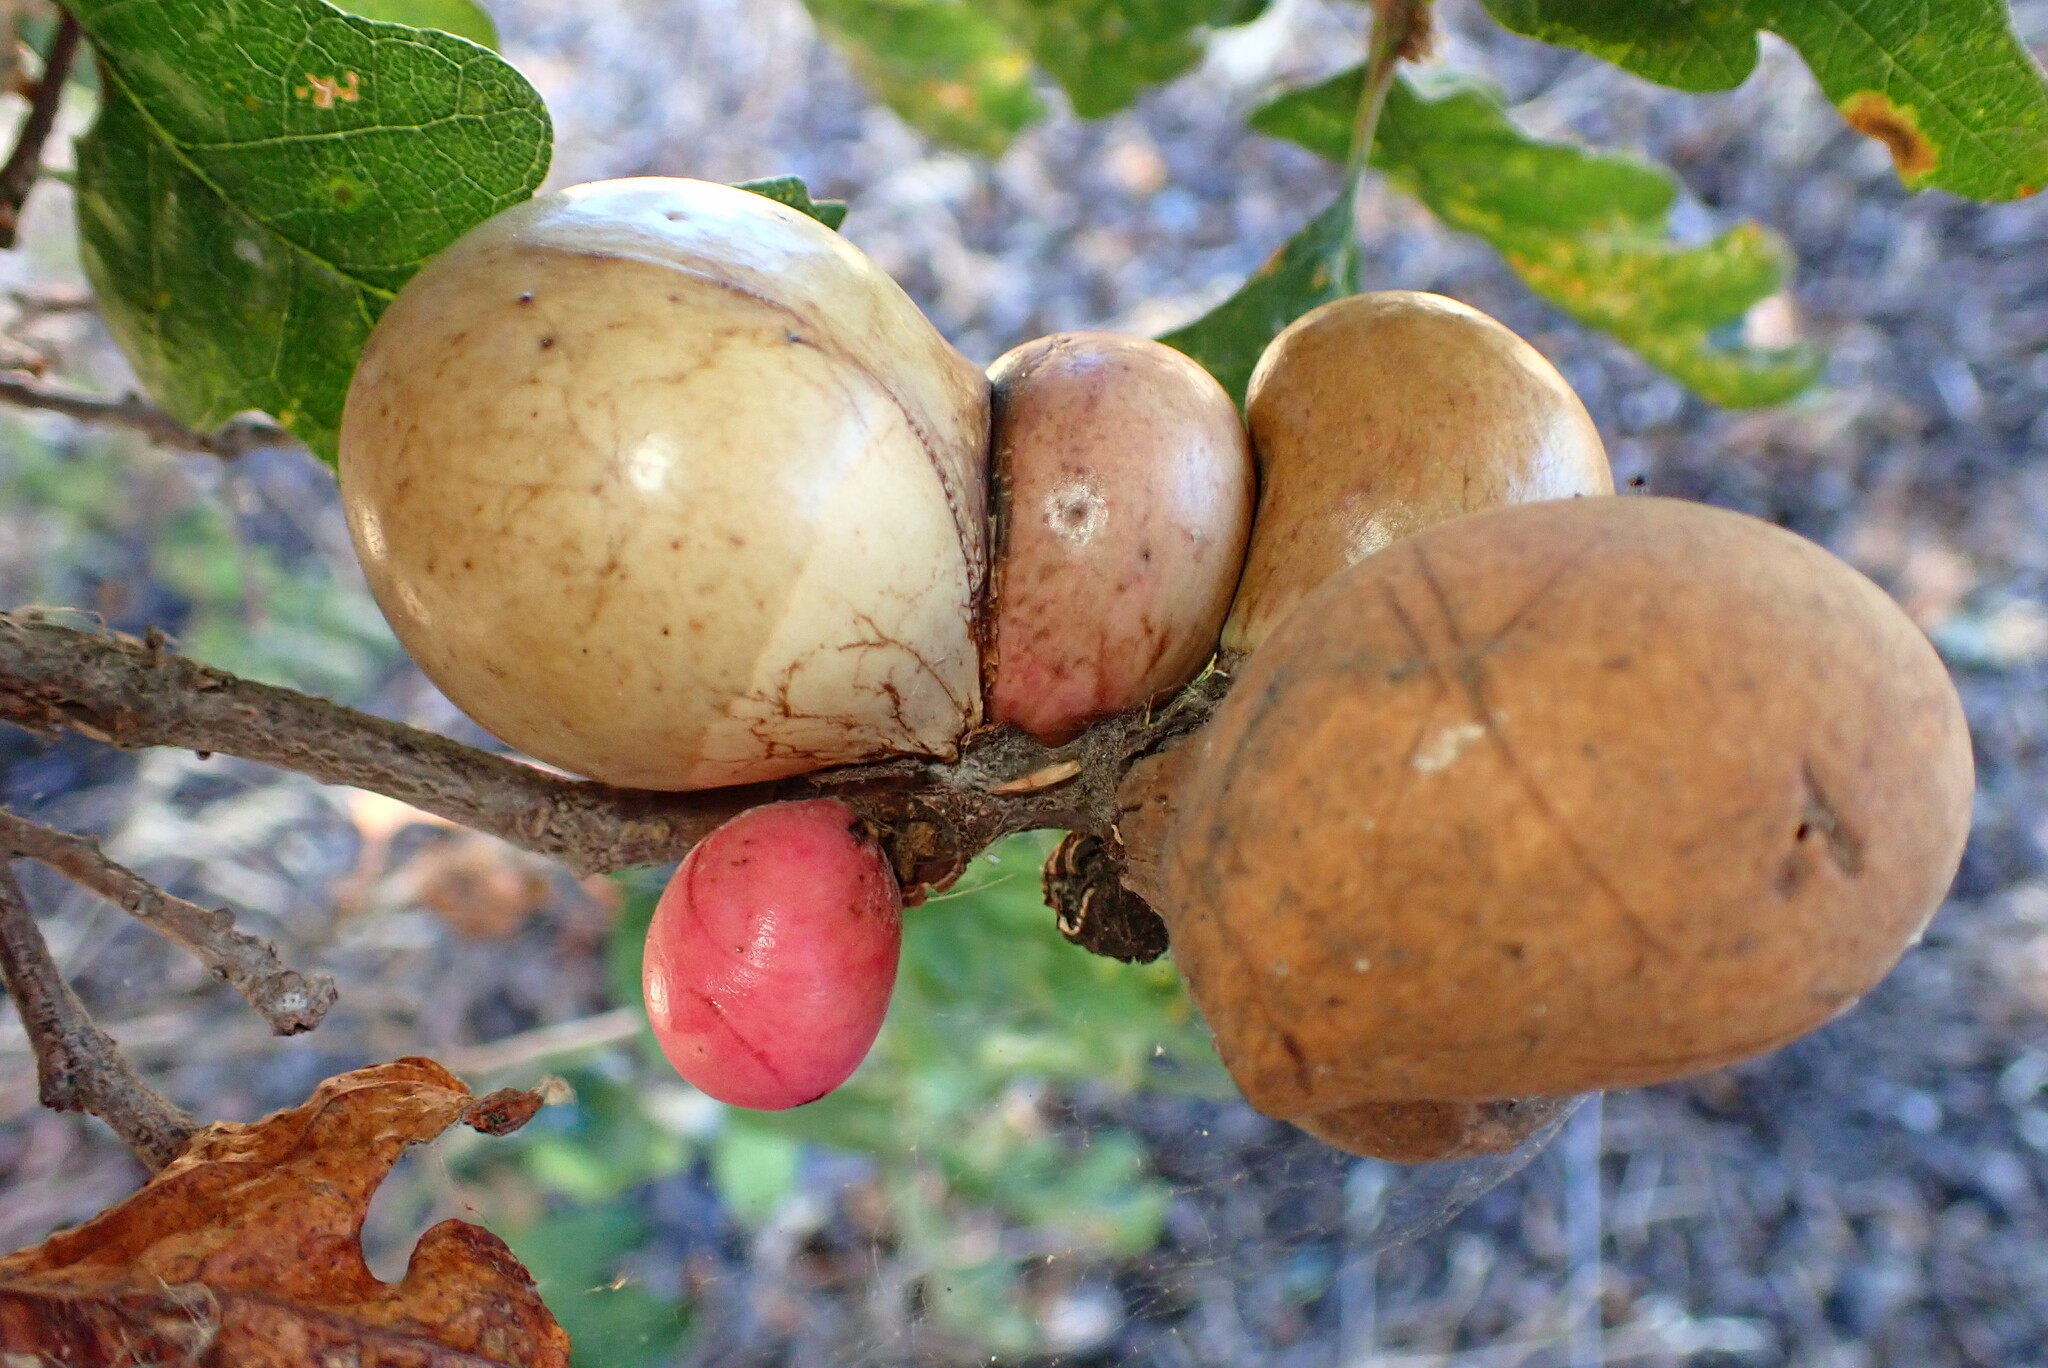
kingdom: Animalia
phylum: Arthropoda
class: Insecta
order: Hymenoptera
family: Cynipidae
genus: Andricus
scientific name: Andricus quercuscalifornicus
